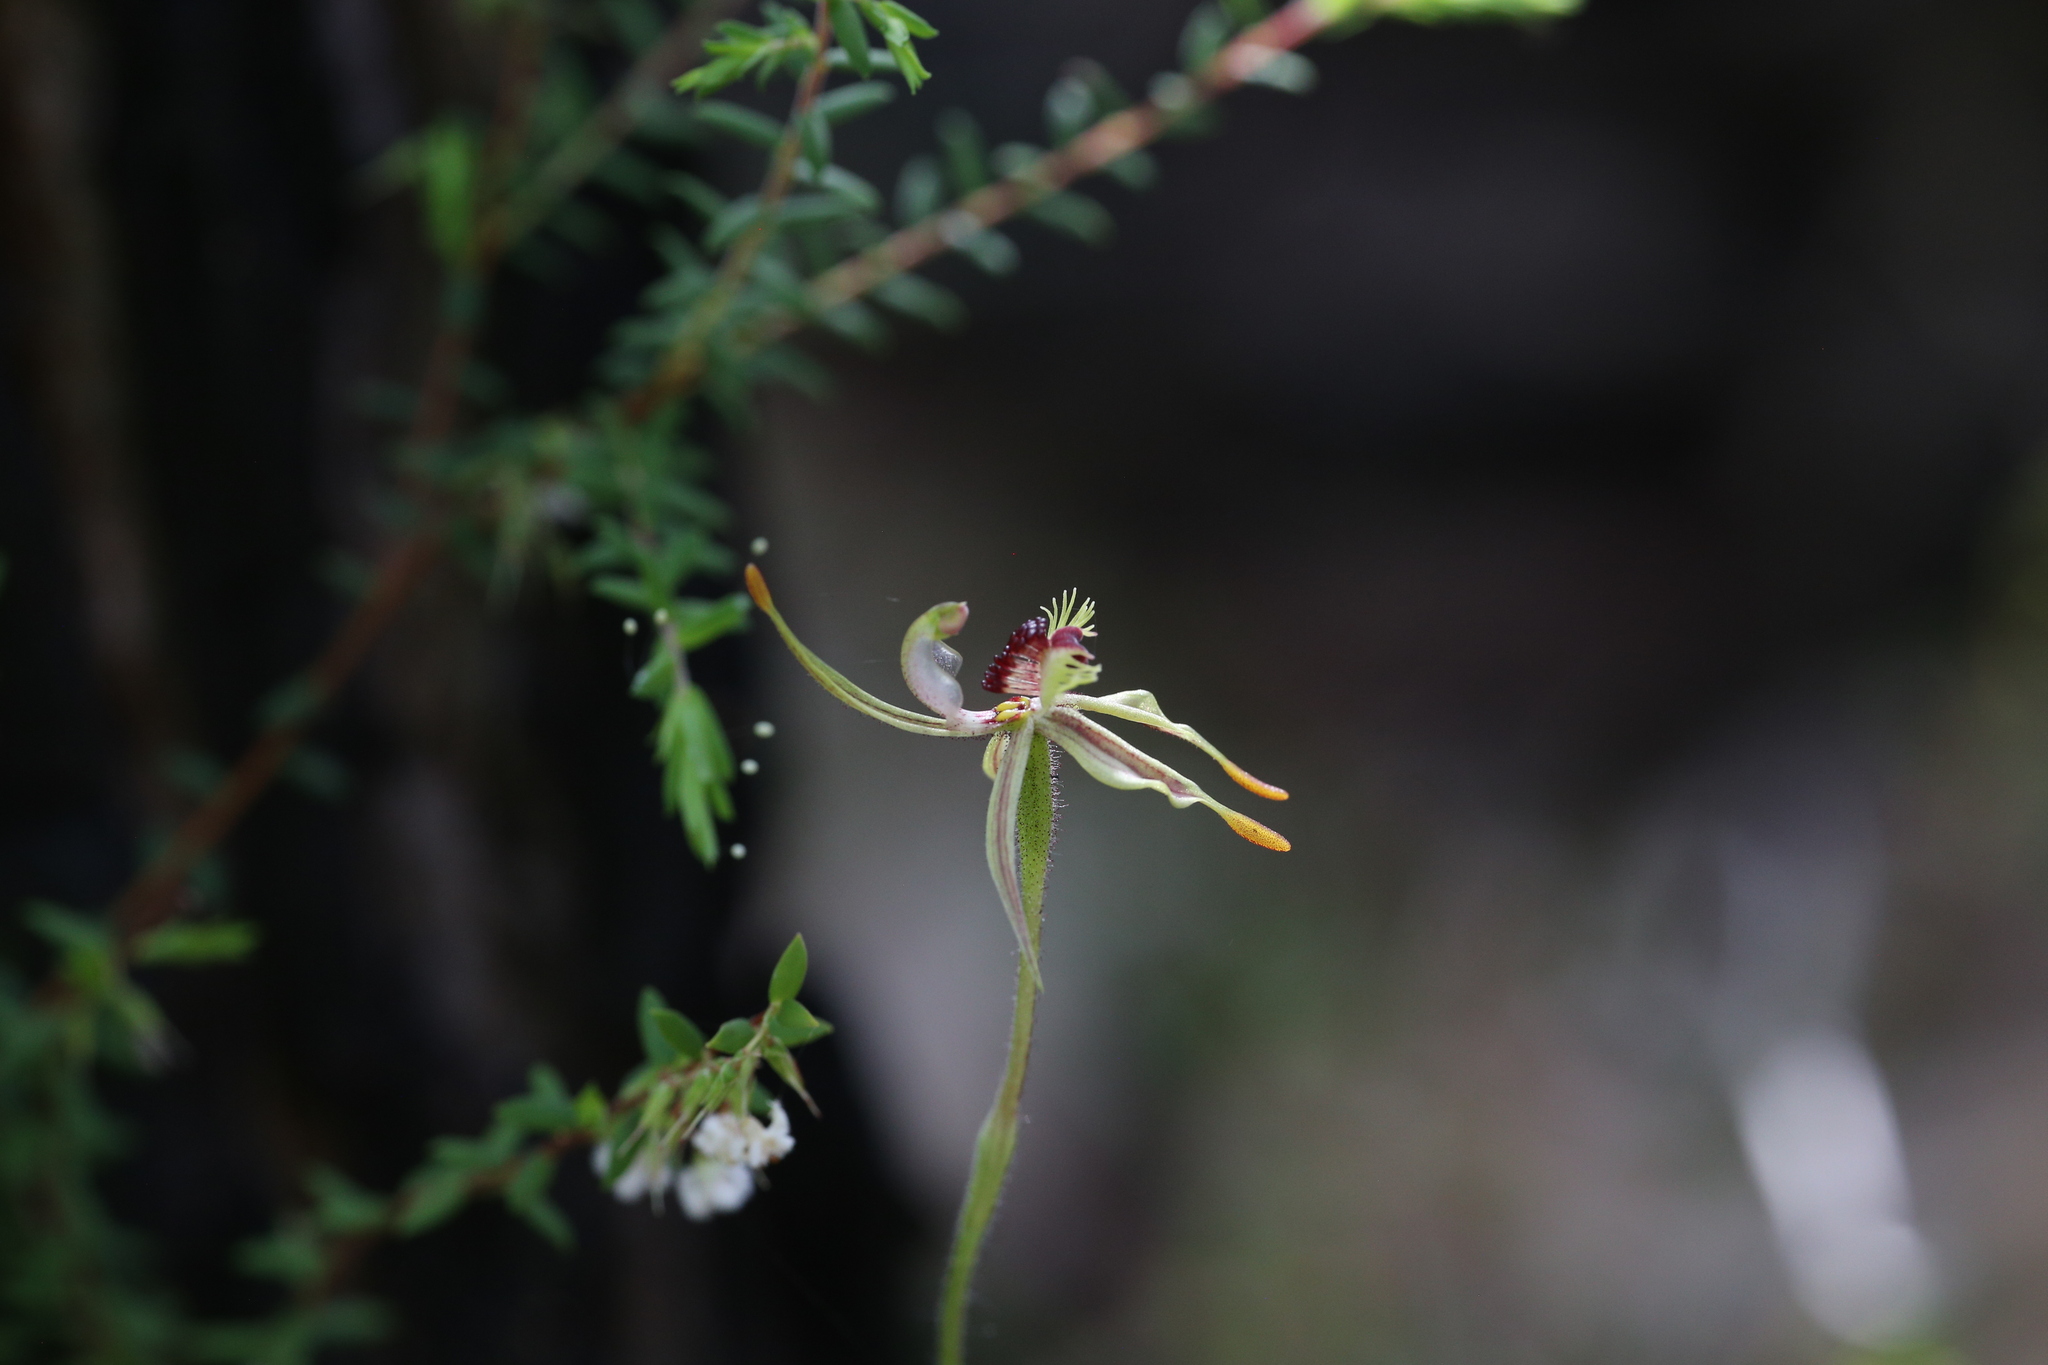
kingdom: Plantae
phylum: Tracheophyta
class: Liliopsida
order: Asparagales
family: Orchidaceae
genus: Caladenia
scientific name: Caladenia plicata
